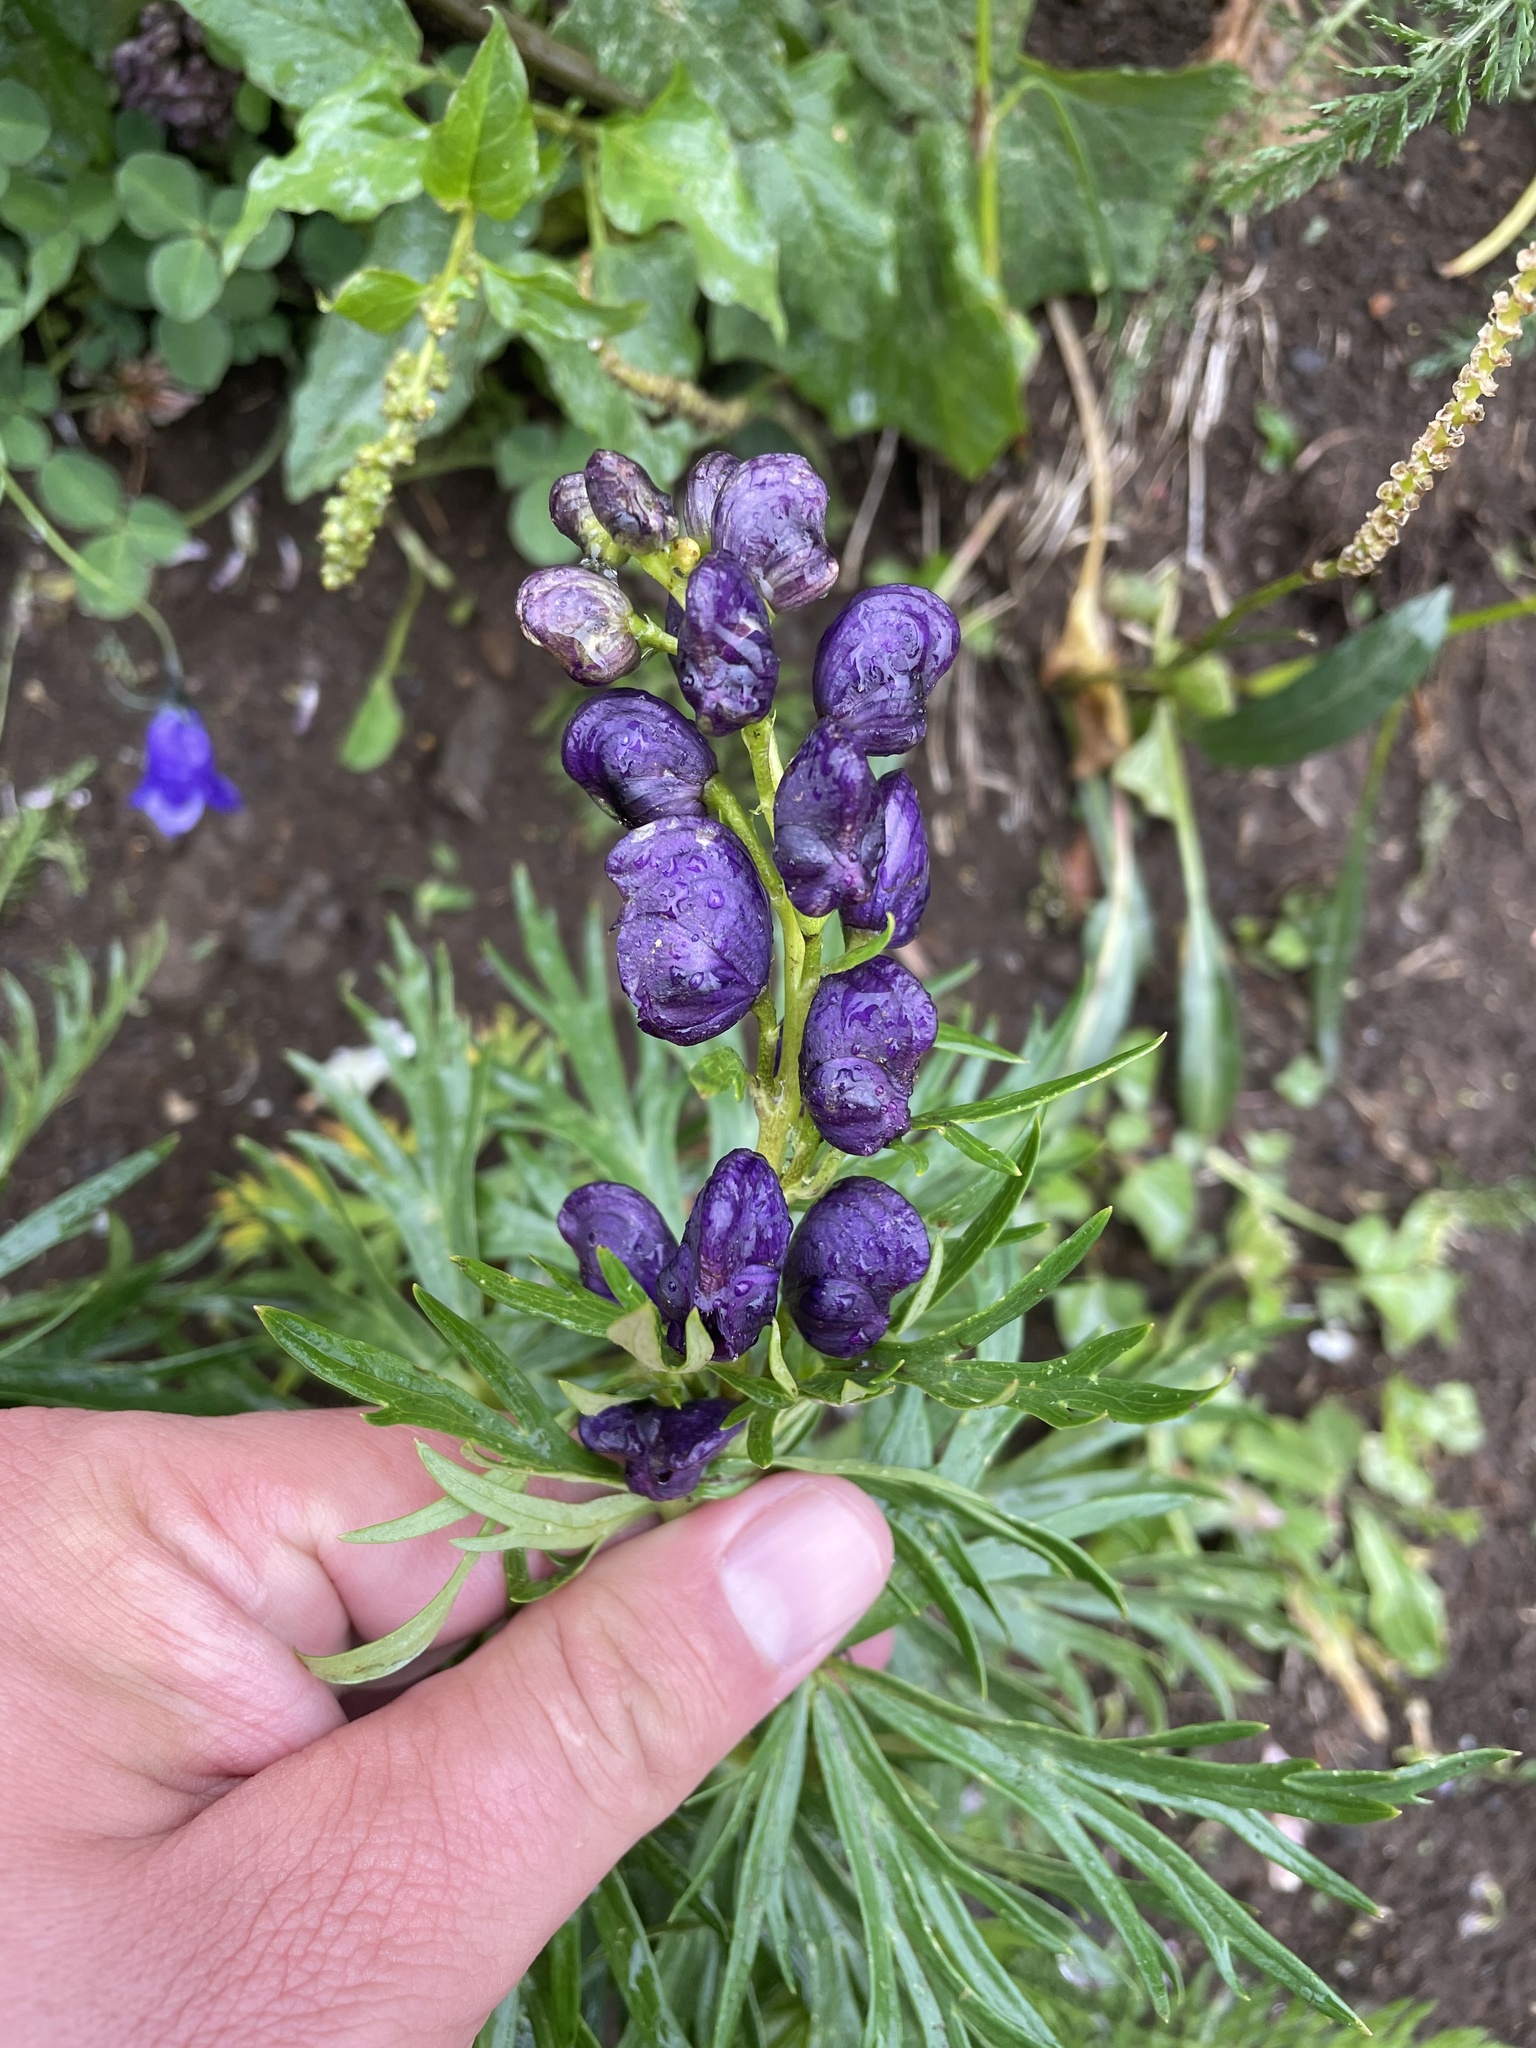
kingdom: Plantae
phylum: Tracheophyta
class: Magnoliopsida
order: Ranunculales
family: Ranunculaceae
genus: Aconitum
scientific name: Aconitum tauricum
